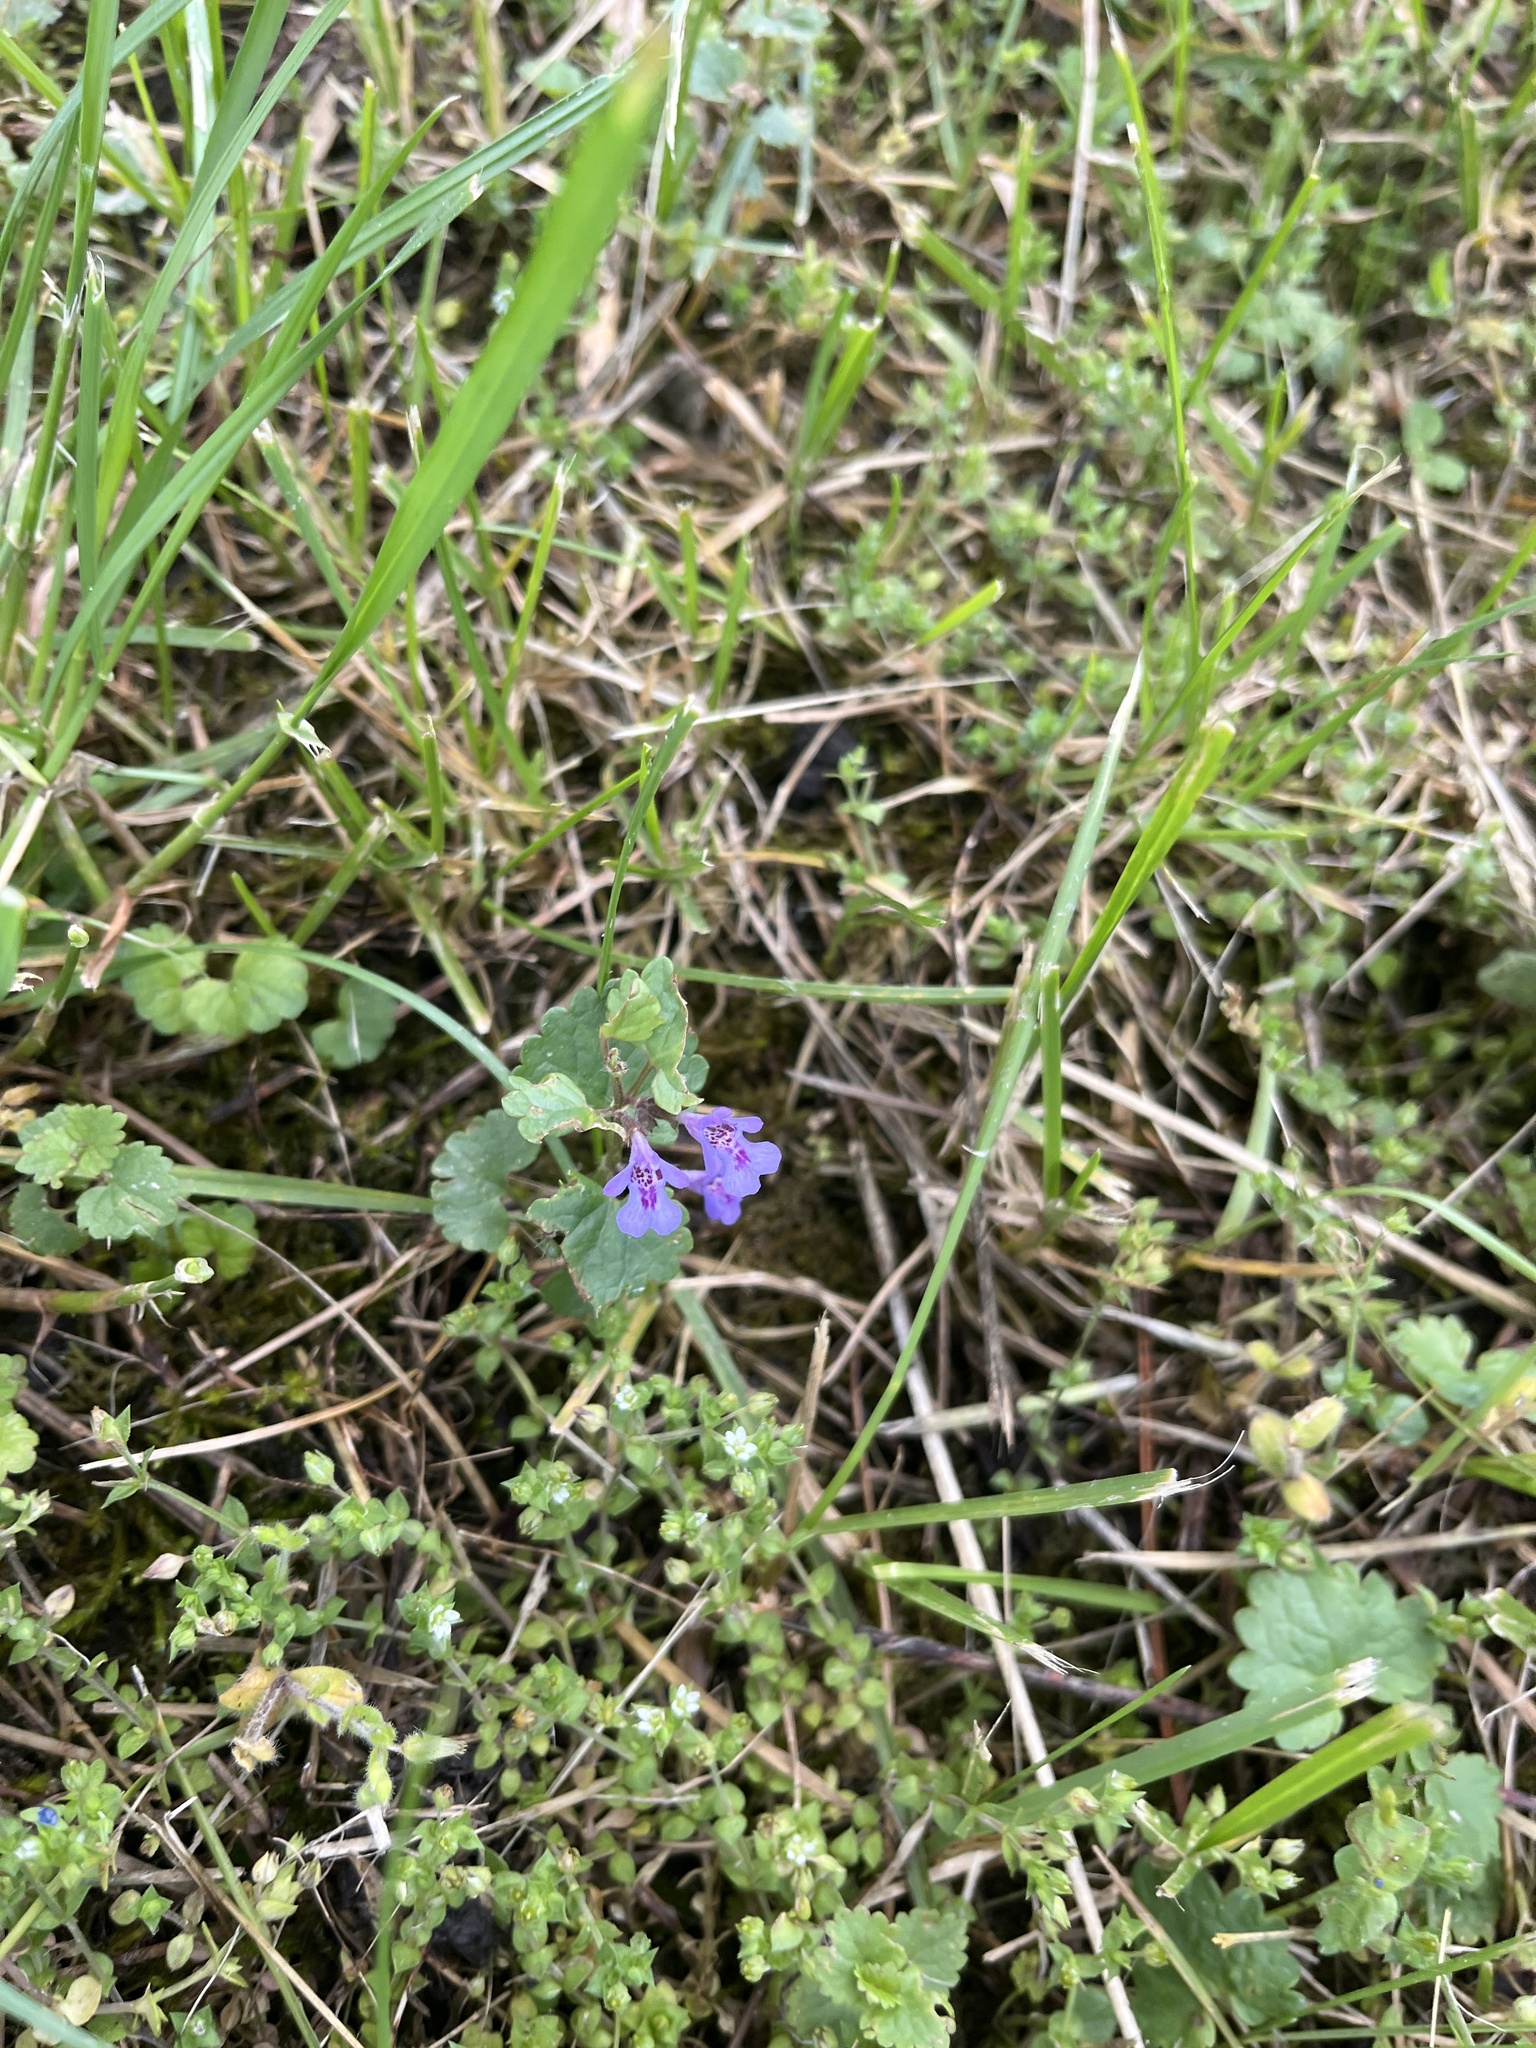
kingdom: Plantae
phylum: Tracheophyta
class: Magnoliopsida
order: Lamiales
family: Lamiaceae
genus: Glechoma
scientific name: Glechoma hederacea
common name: Ground ivy
